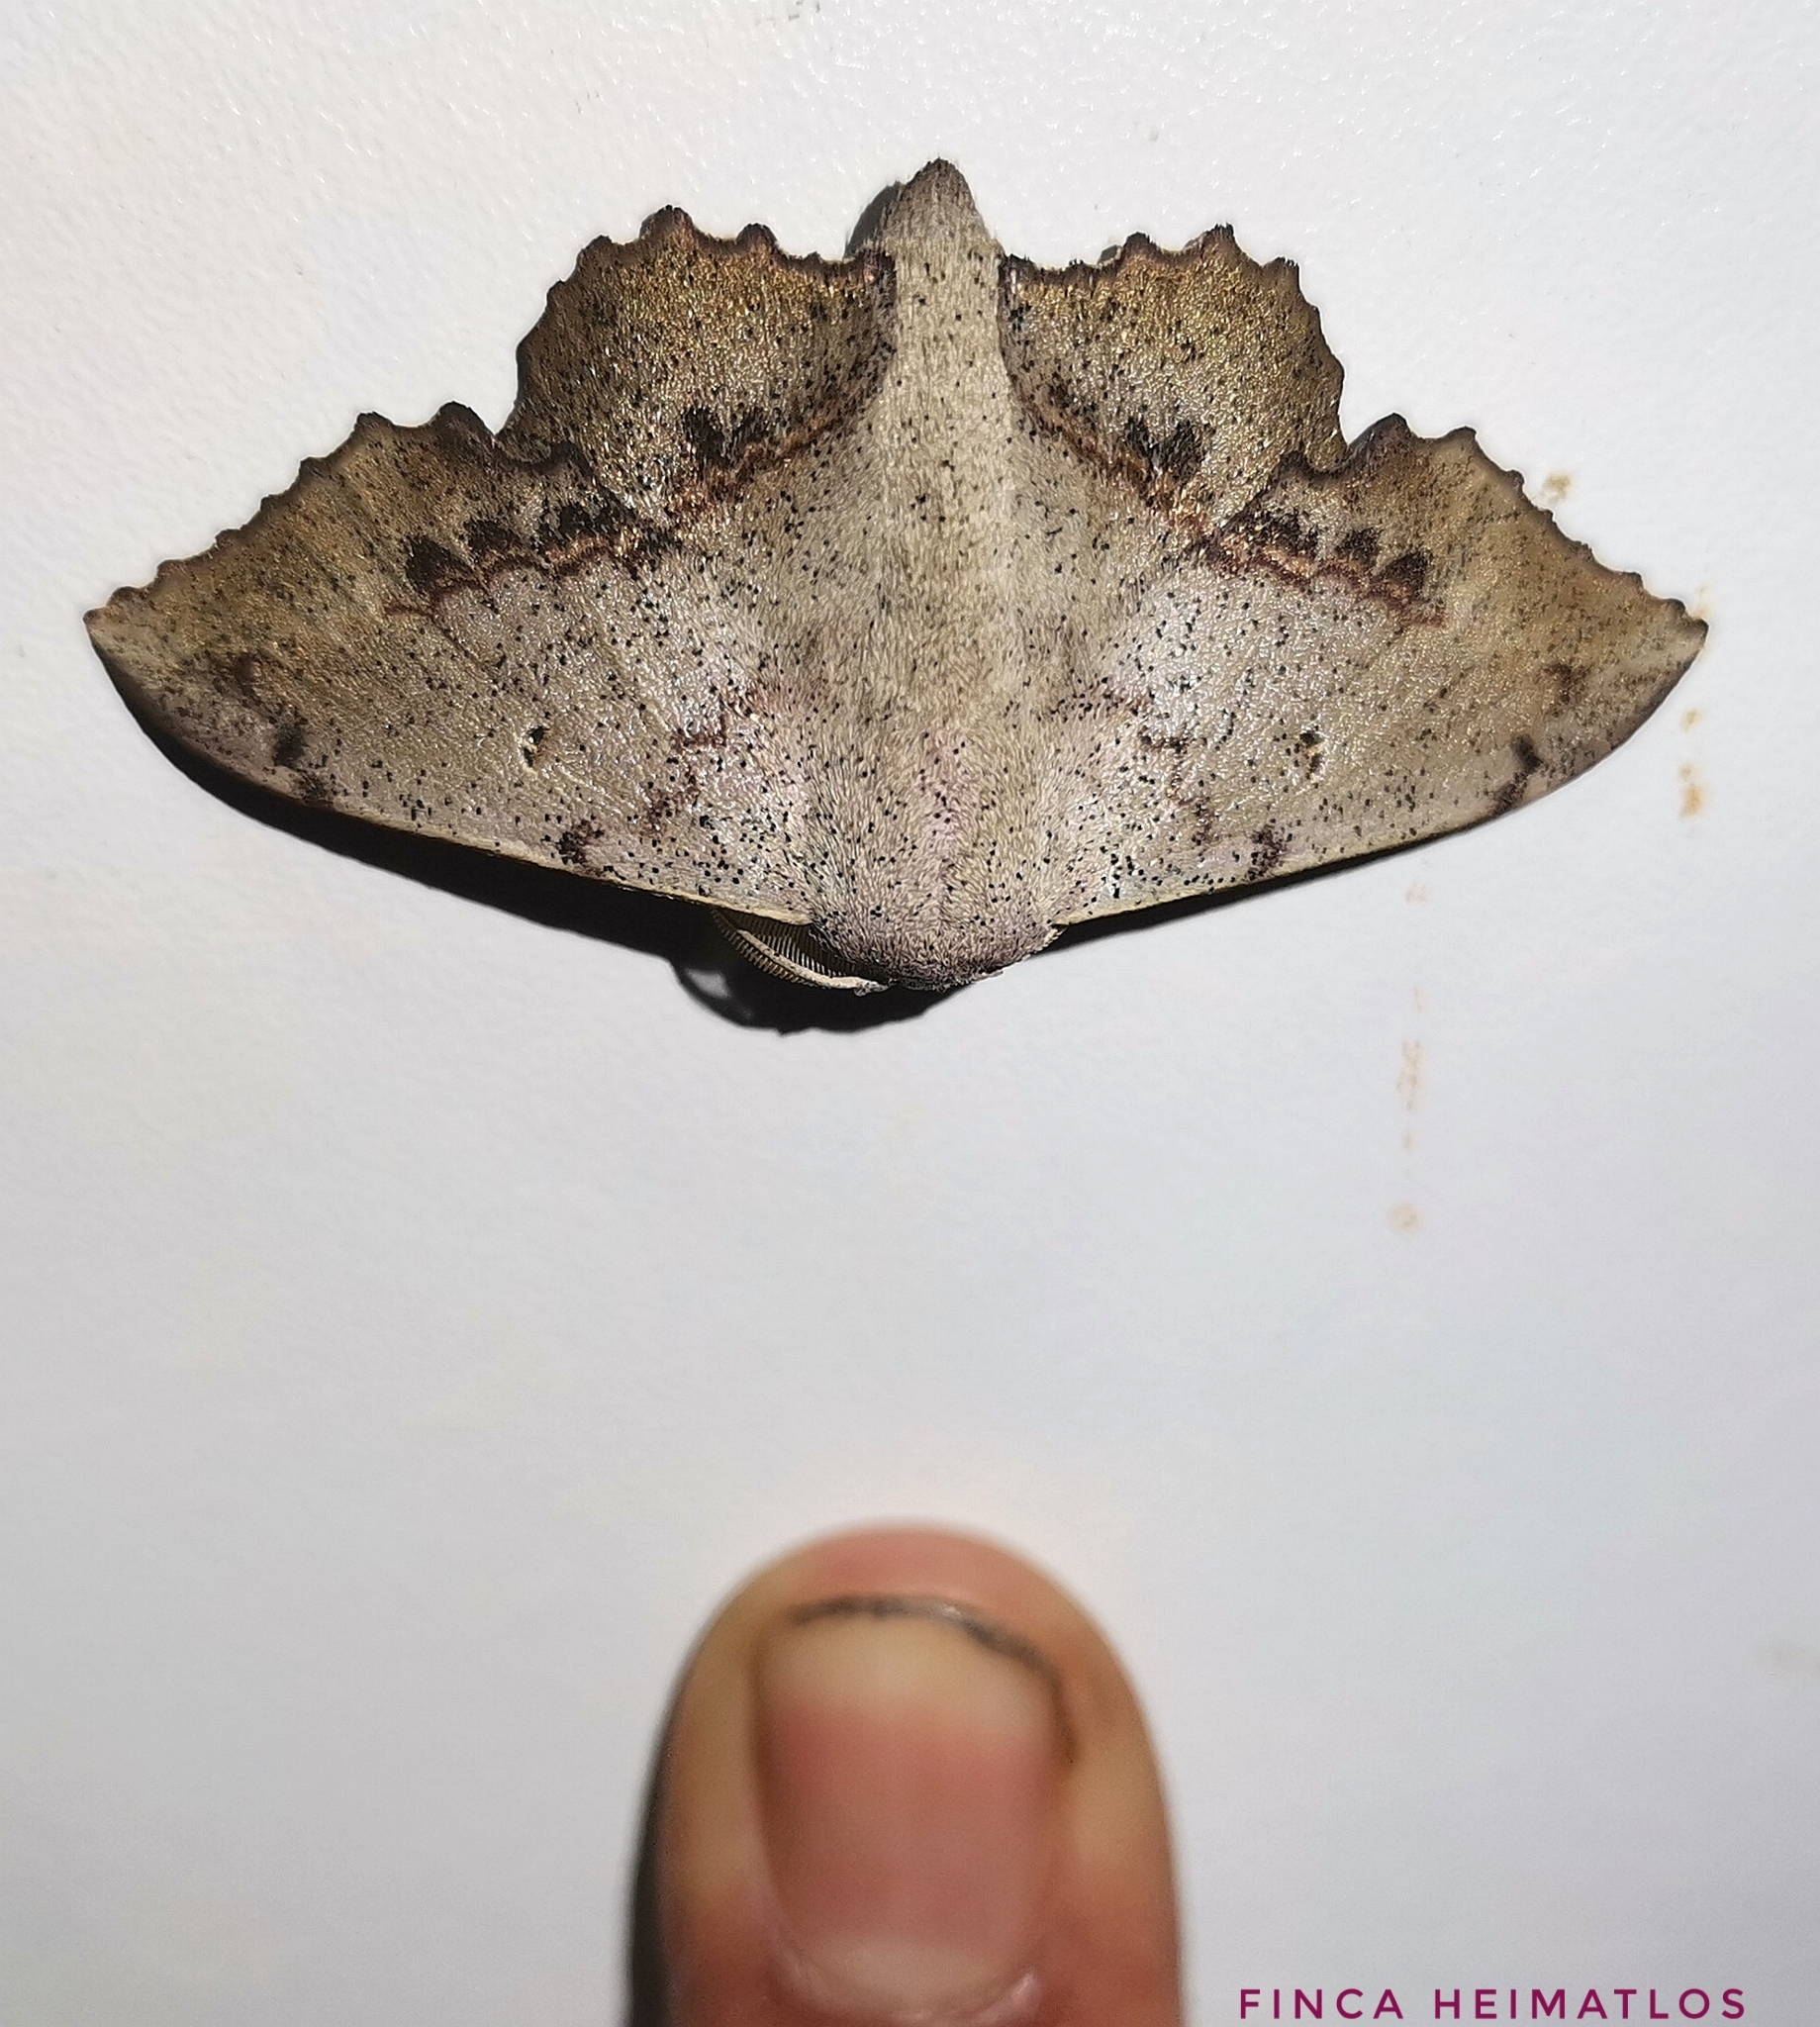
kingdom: Animalia
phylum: Arthropoda
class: Insecta
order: Lepidoptera
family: Mimallonidae
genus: Mimallo
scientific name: Mimallo brosica
